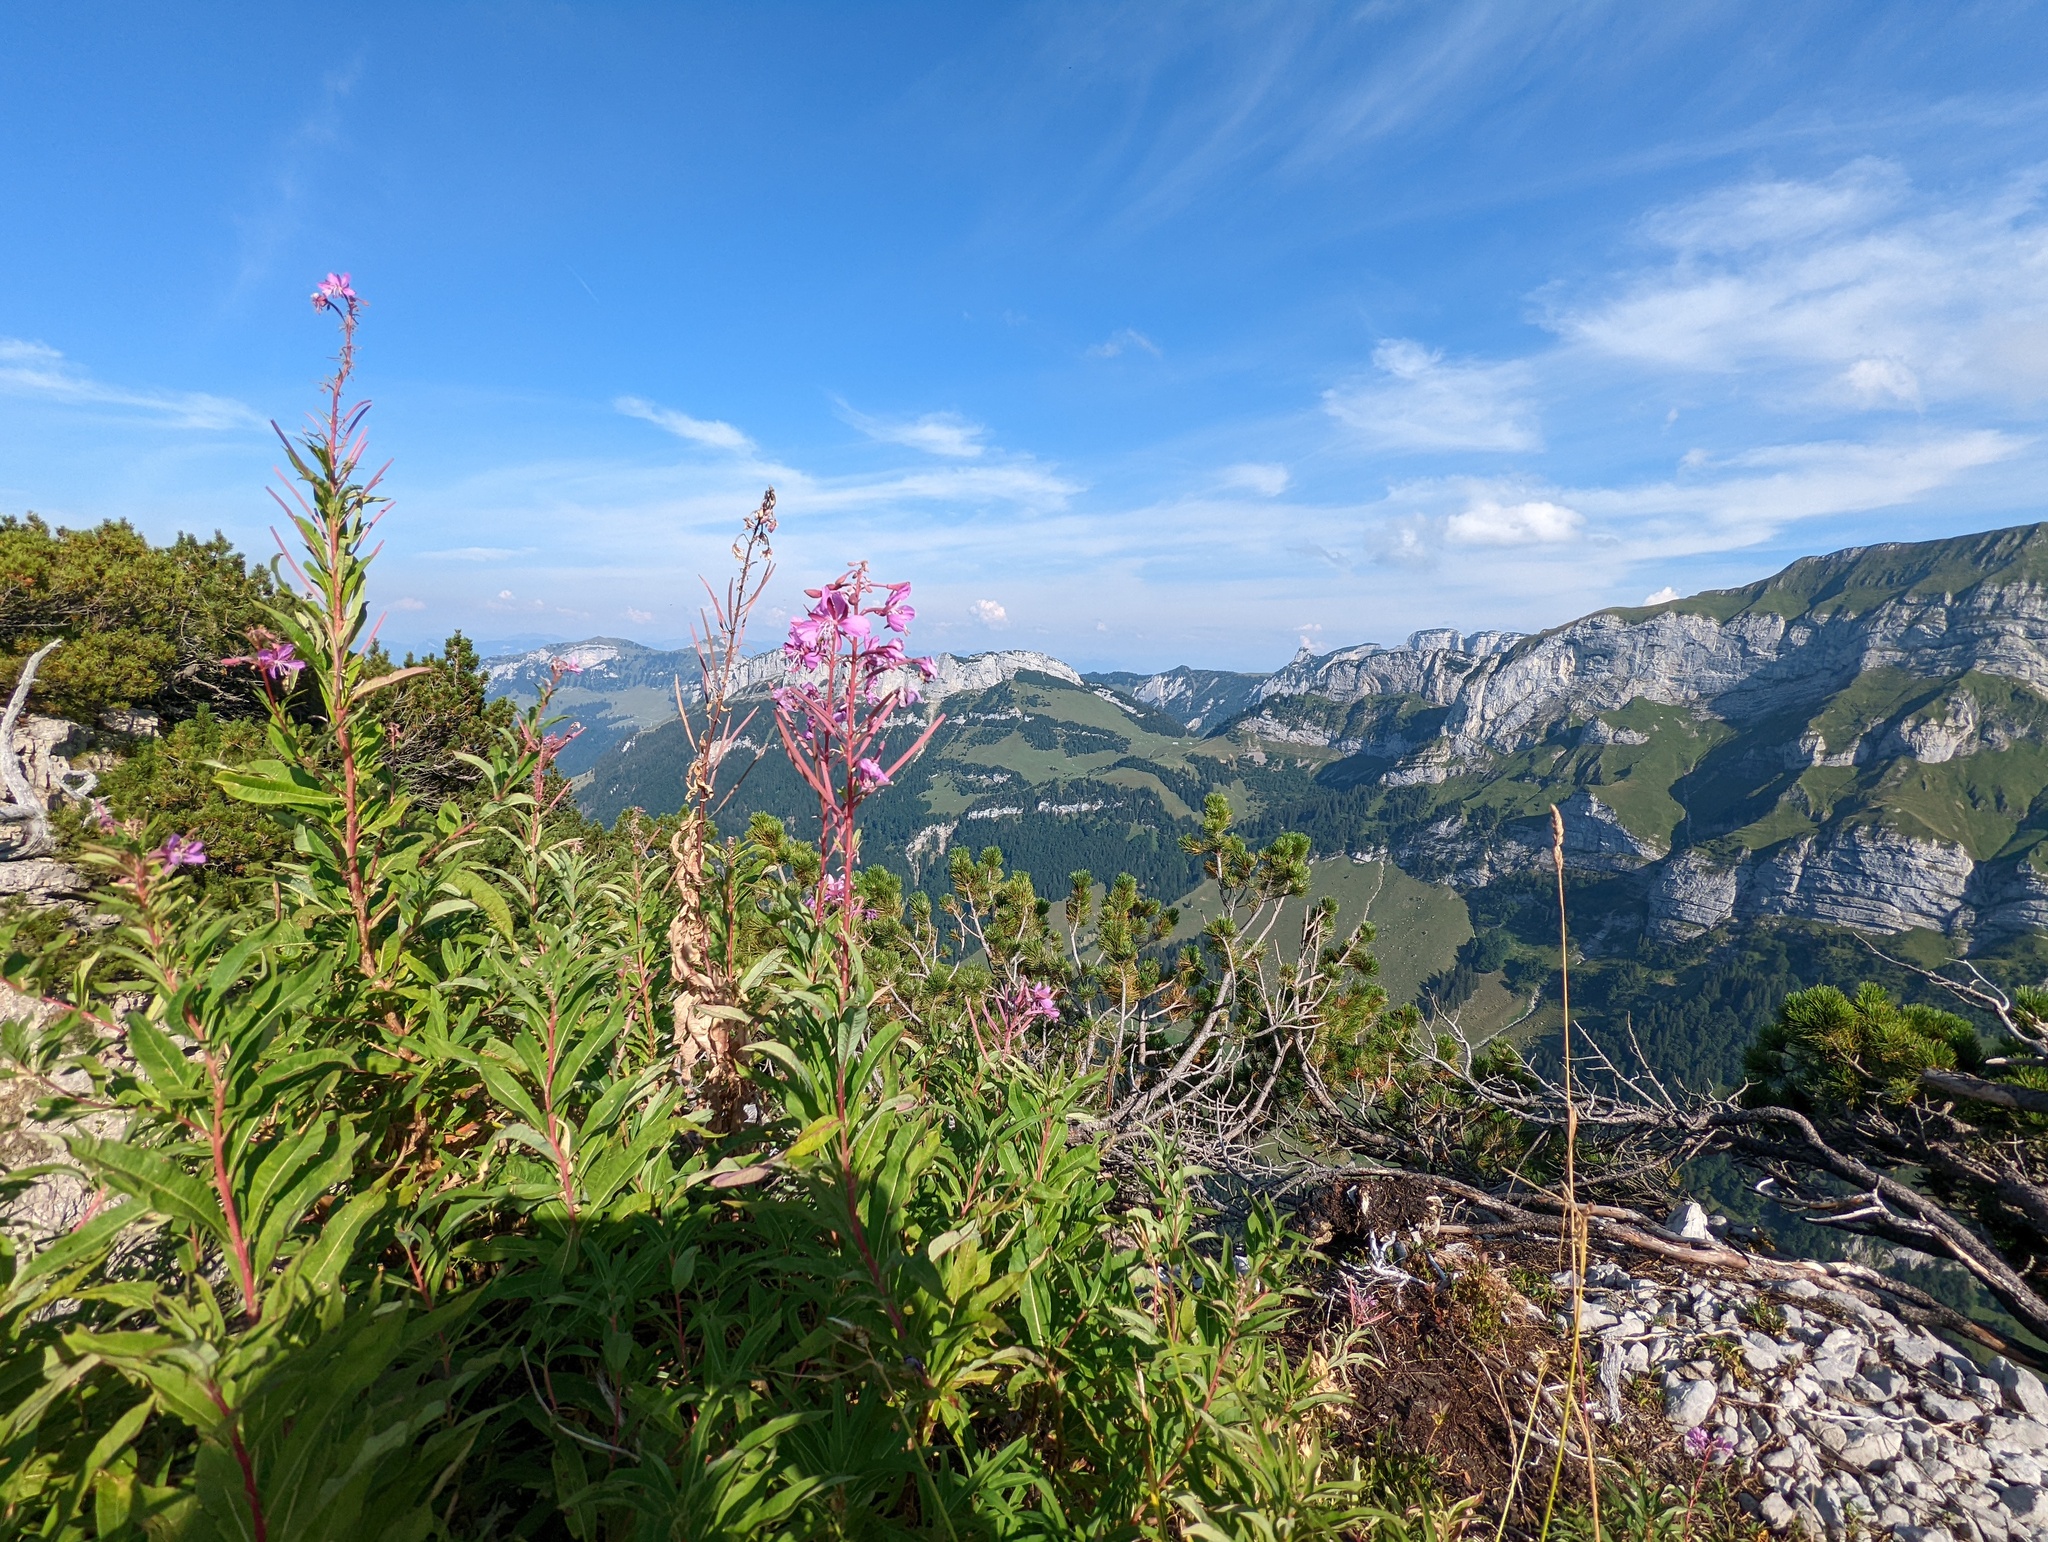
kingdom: Plantae
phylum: Tracheophyta
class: Magnoliopsida
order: Myrtales
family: Onagraceae
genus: Chamaenerion
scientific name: Chamaenerion angustifolium
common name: Fireweed
